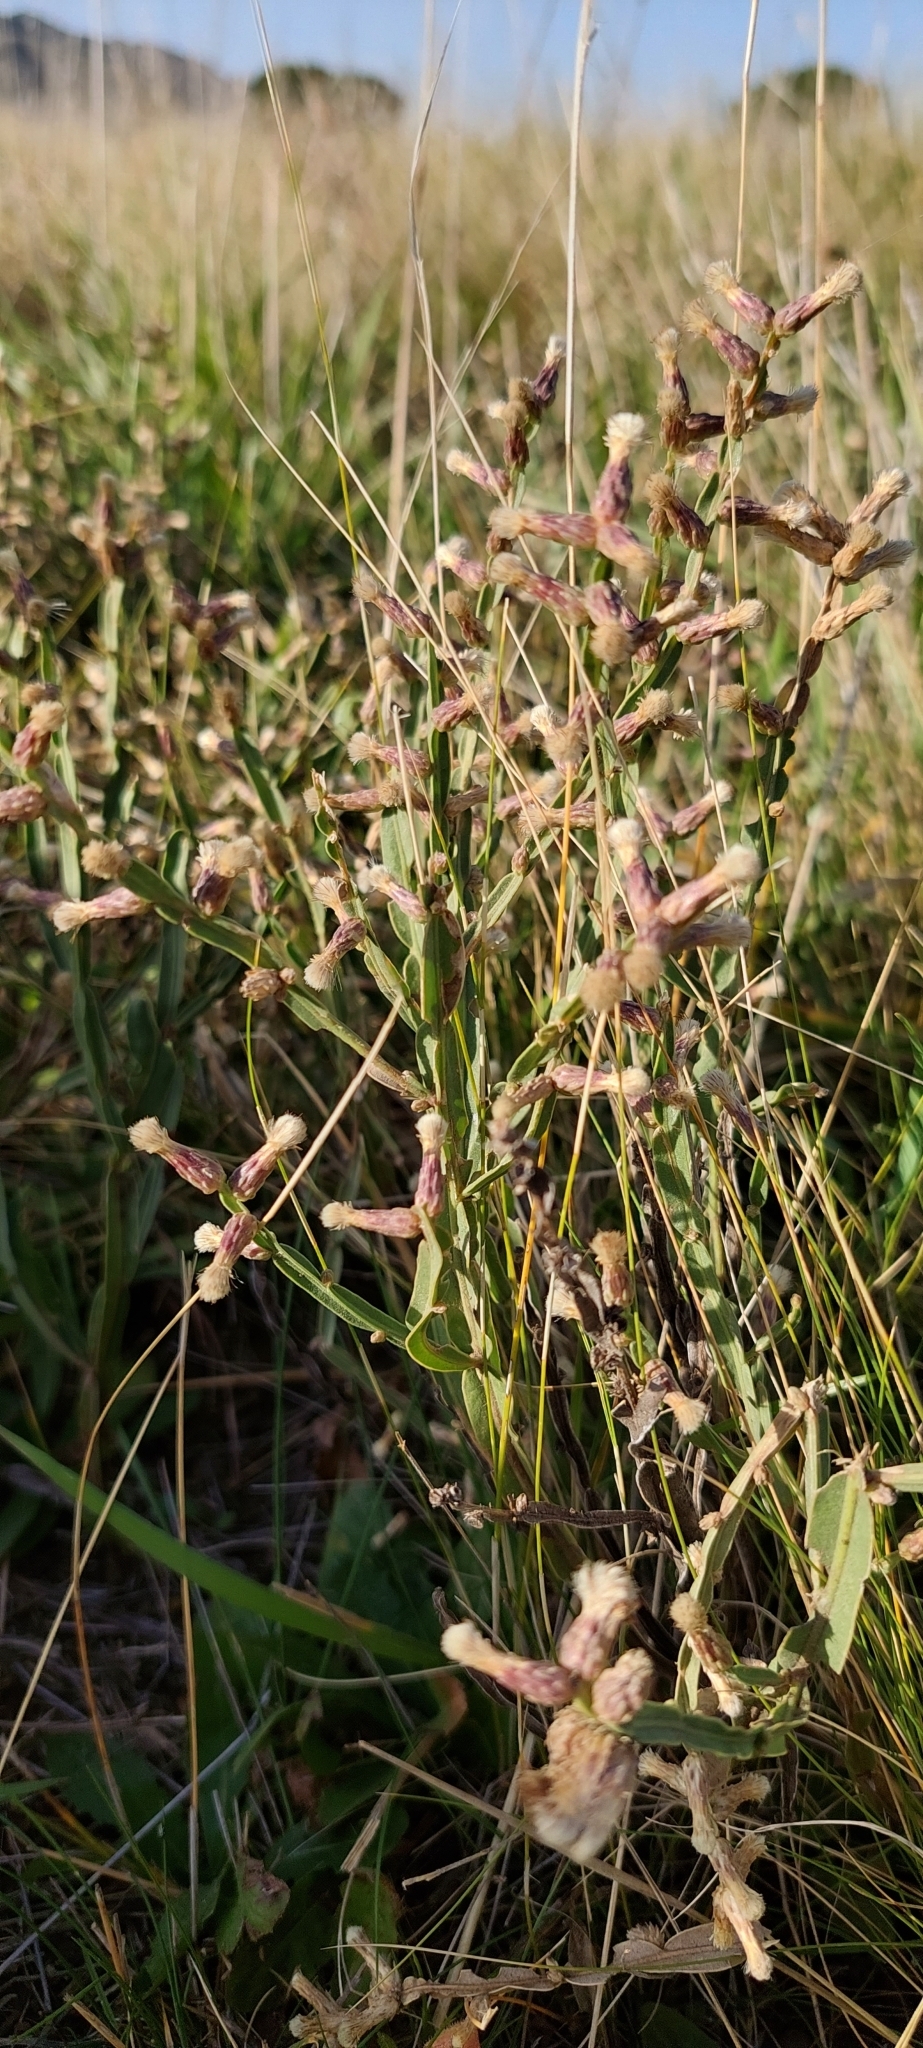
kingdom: Plantae
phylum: Tracheophyta
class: Magnoliopsida
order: Asterales
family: Asteraceae
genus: Baccharis
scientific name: Baccharis crispa
